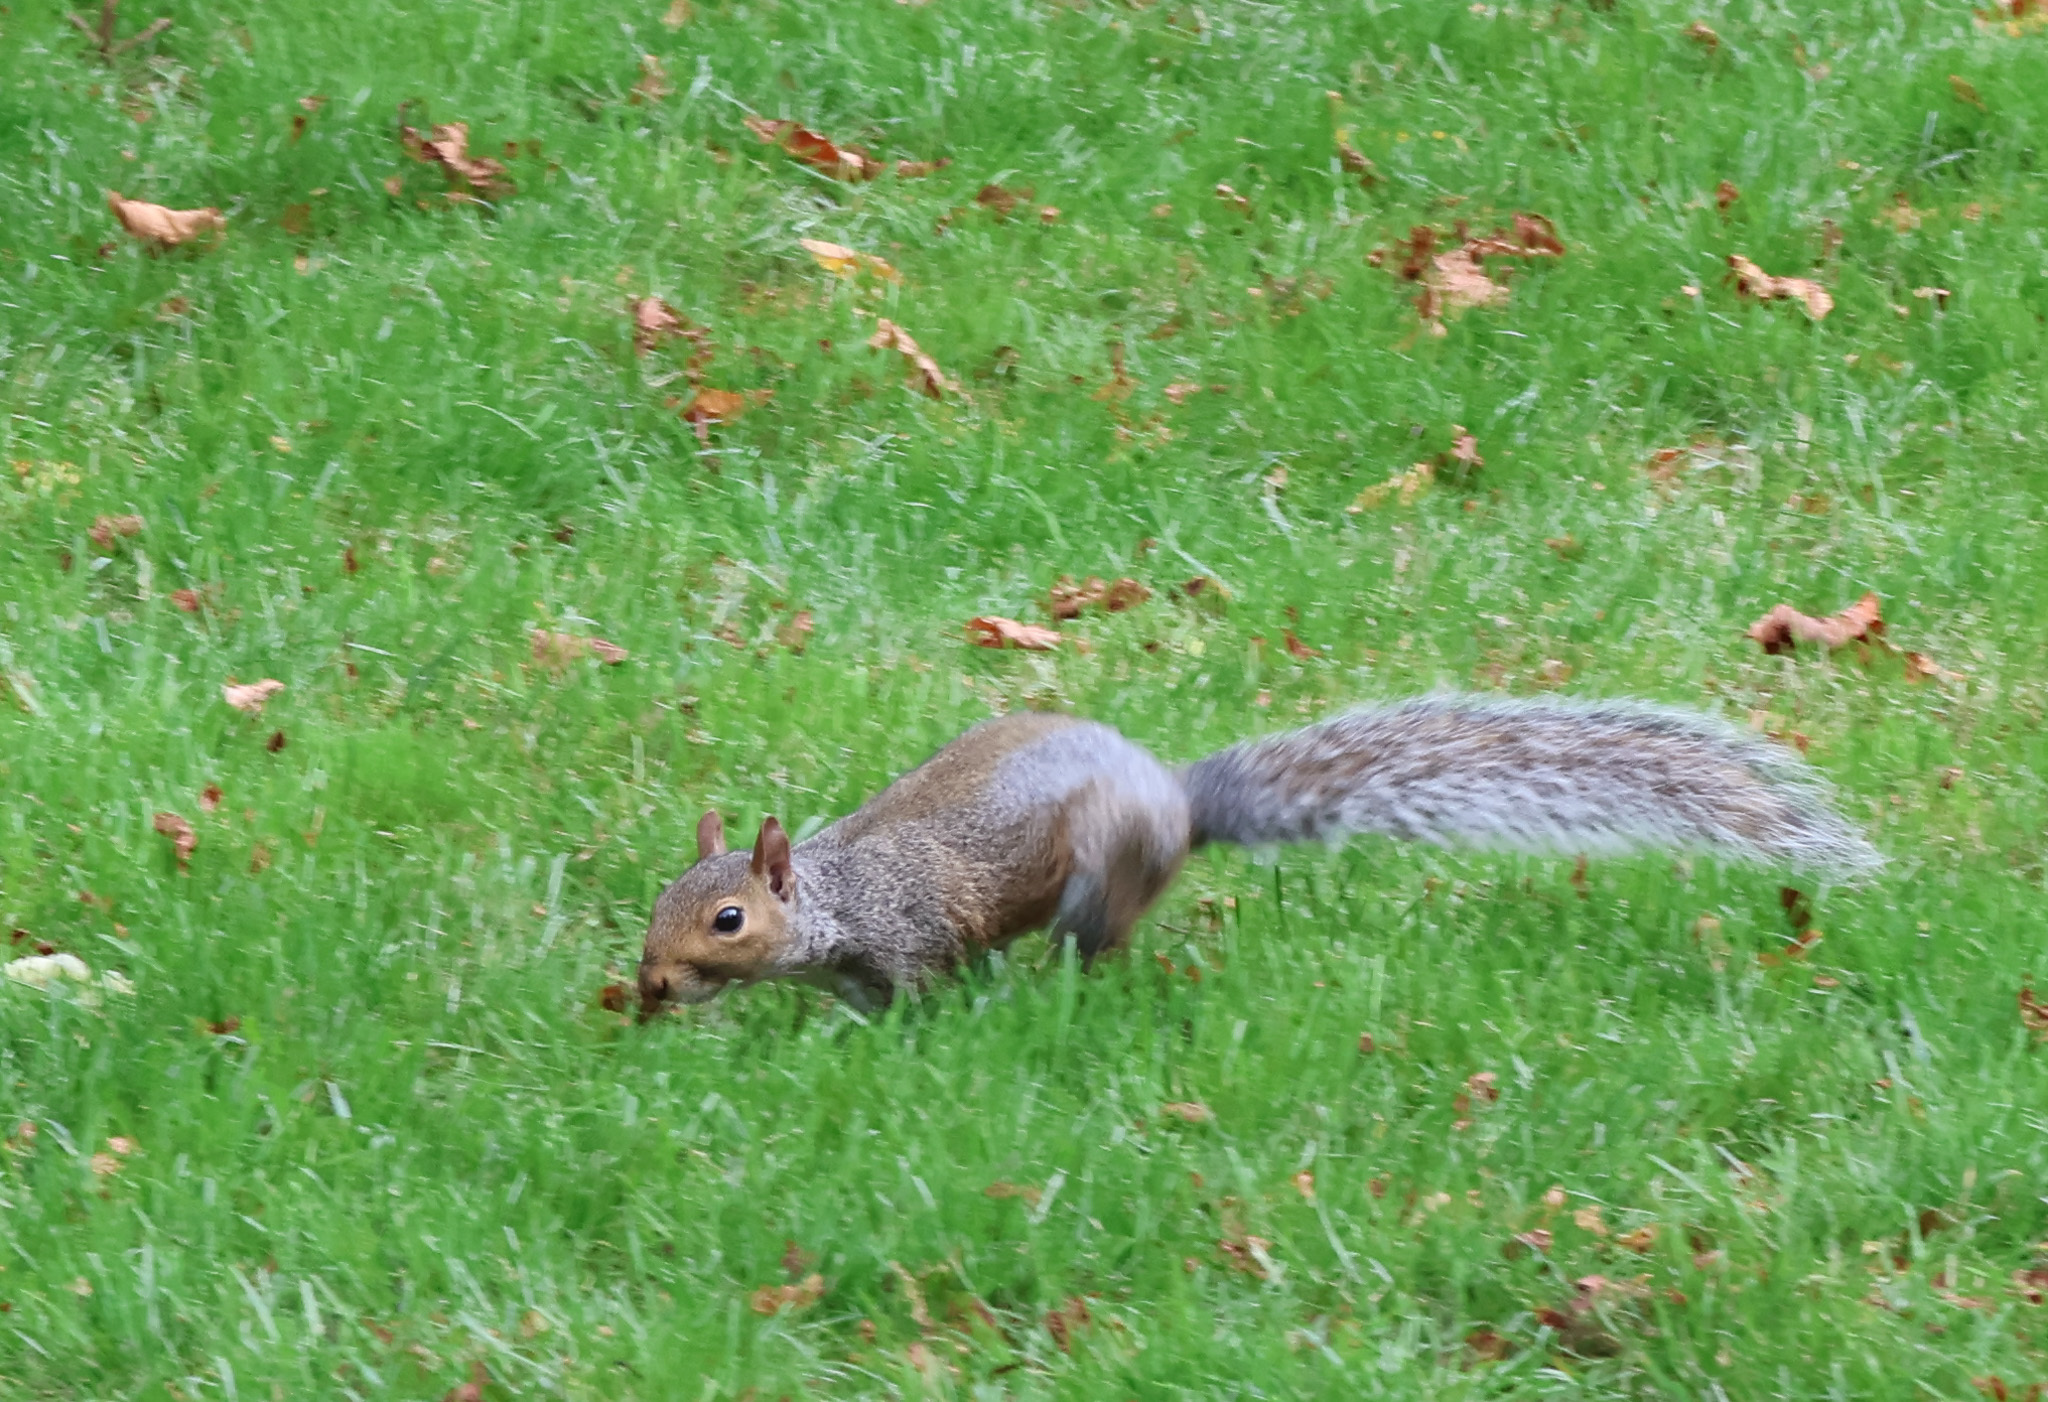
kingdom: Animalia
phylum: Chordata
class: Mammalia
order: Rodentia
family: Sciuridae
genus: Sciurus
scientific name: Sciurus carolinensis
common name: Eastern gray squirrel
